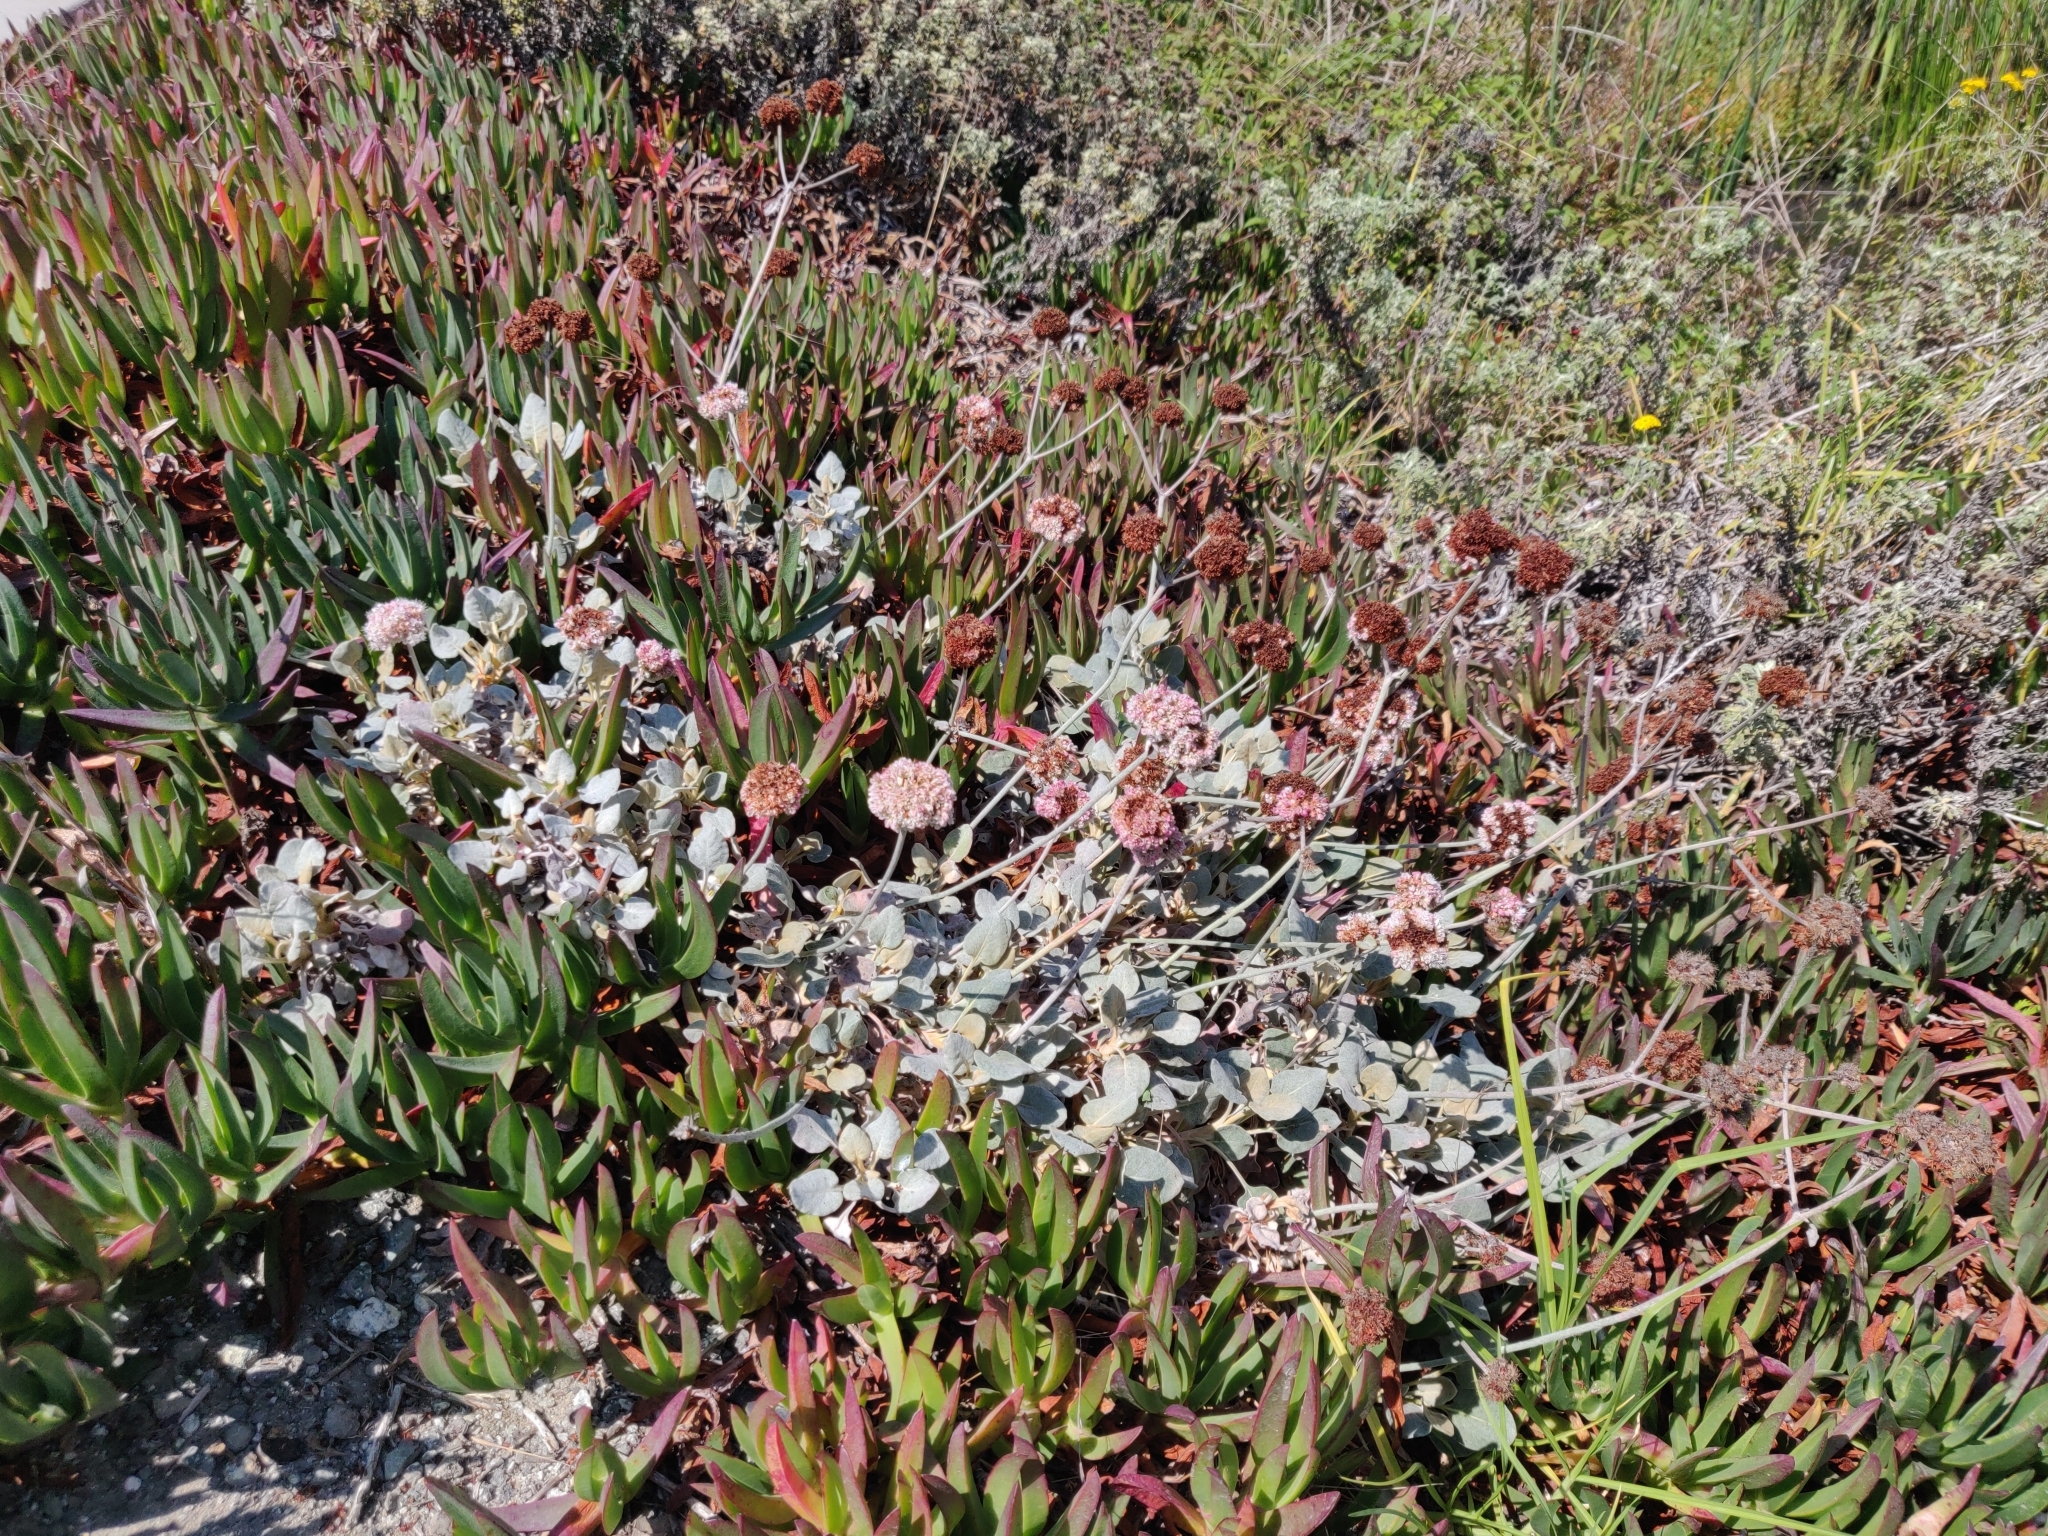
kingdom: Plantae
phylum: Tracheophyta
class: Magnoliopsida
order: Caryophyllales
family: Polygonaceae
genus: Eriogonum
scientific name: Eriogonum latifolium
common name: Seaside wild buckwheat
